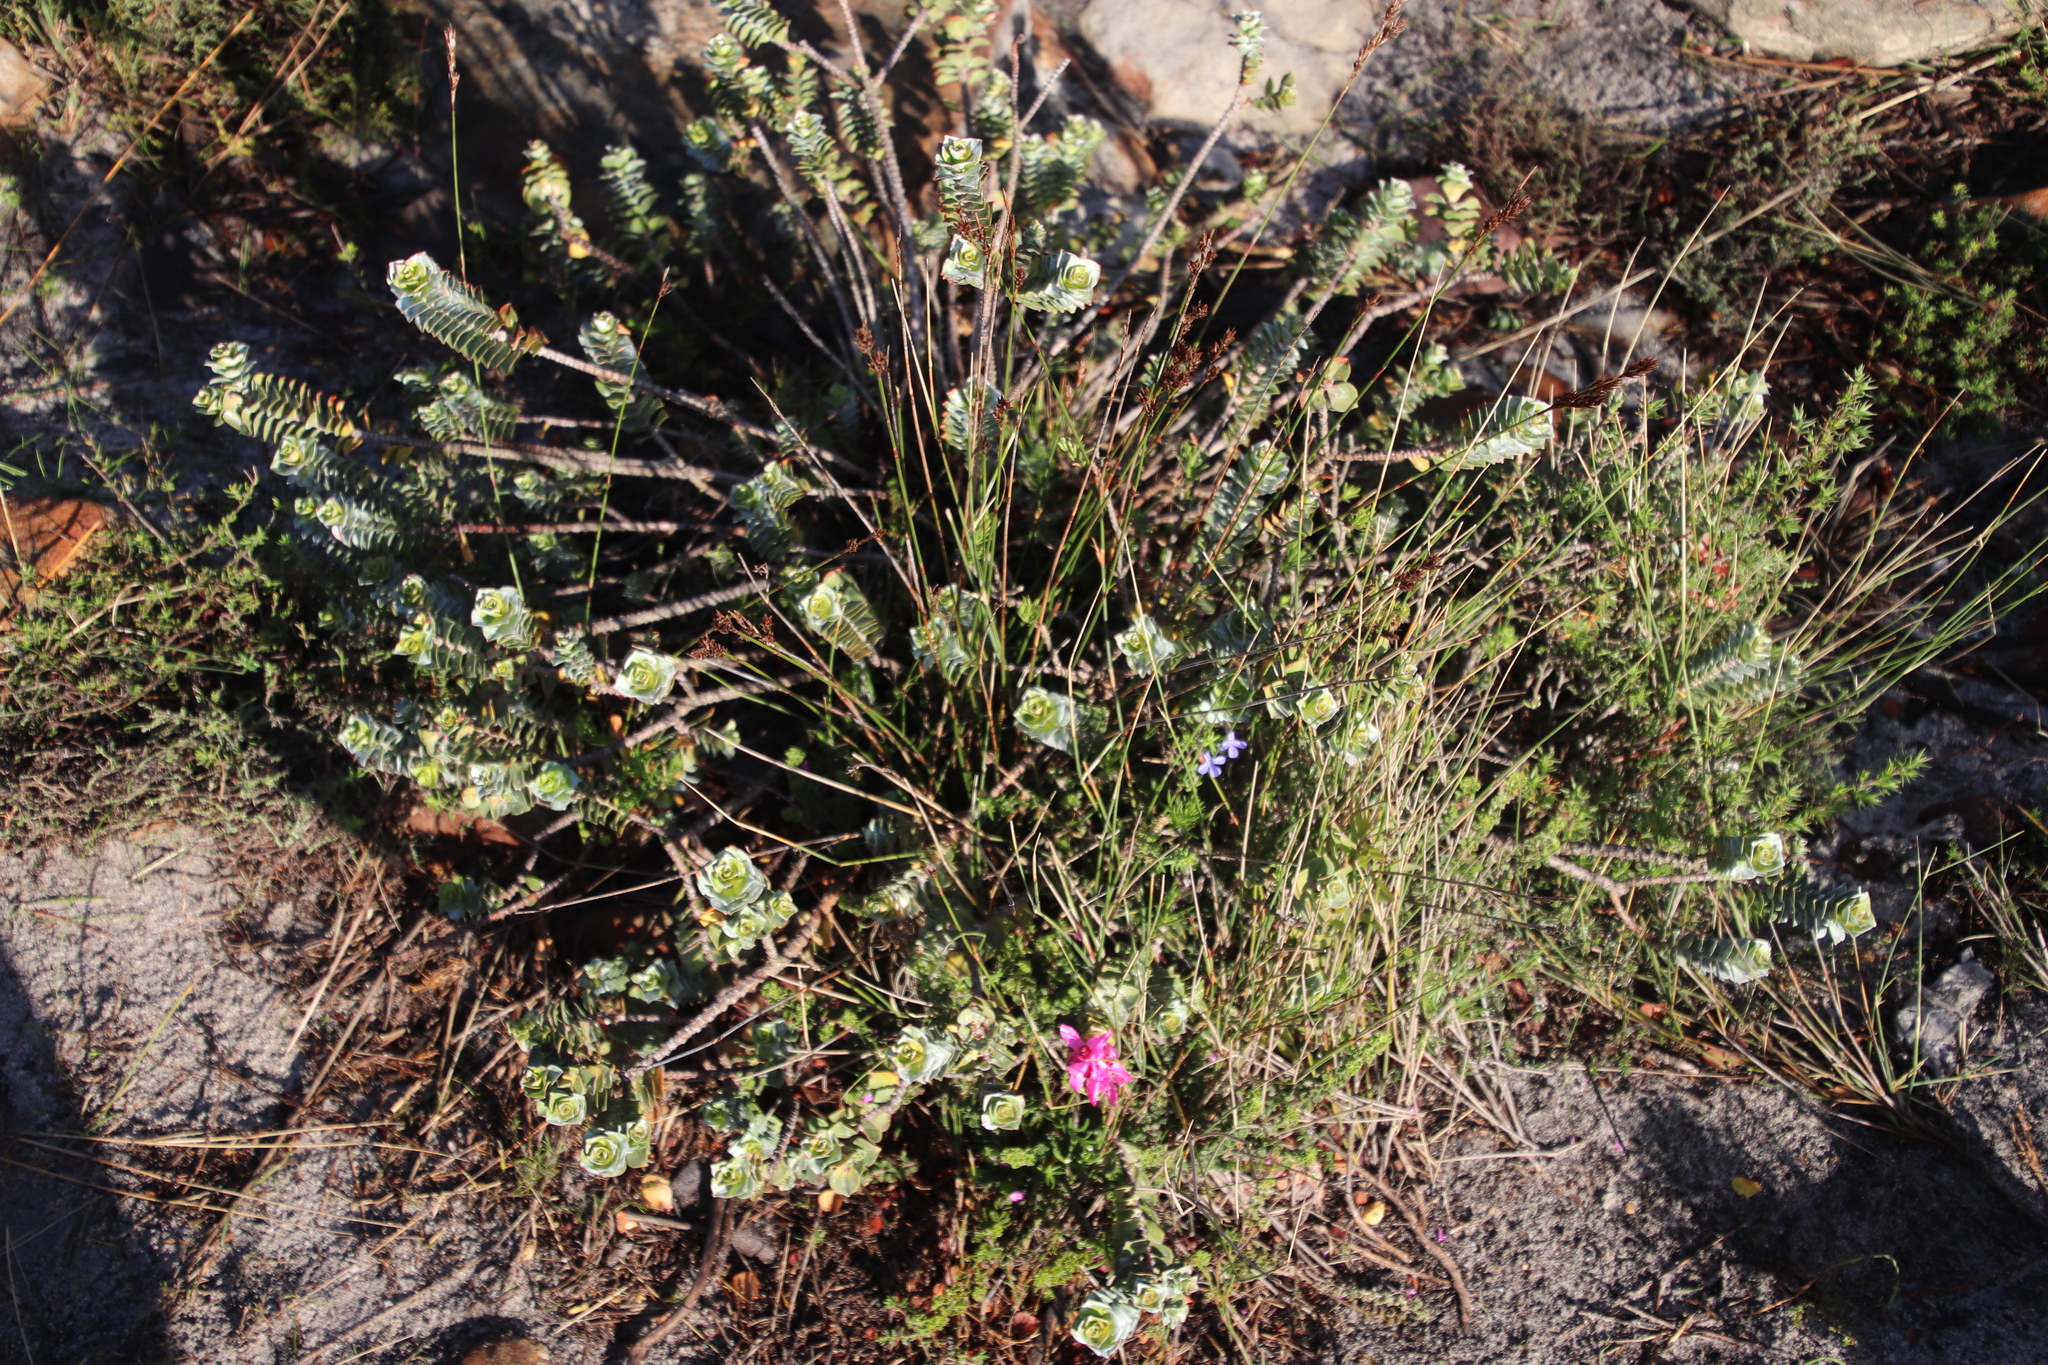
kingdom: Plantae
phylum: Tracheophyta
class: Magnoliopsida
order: Myrtales
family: Penaeaceae
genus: Saltera
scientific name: Saltera sarcocolla
